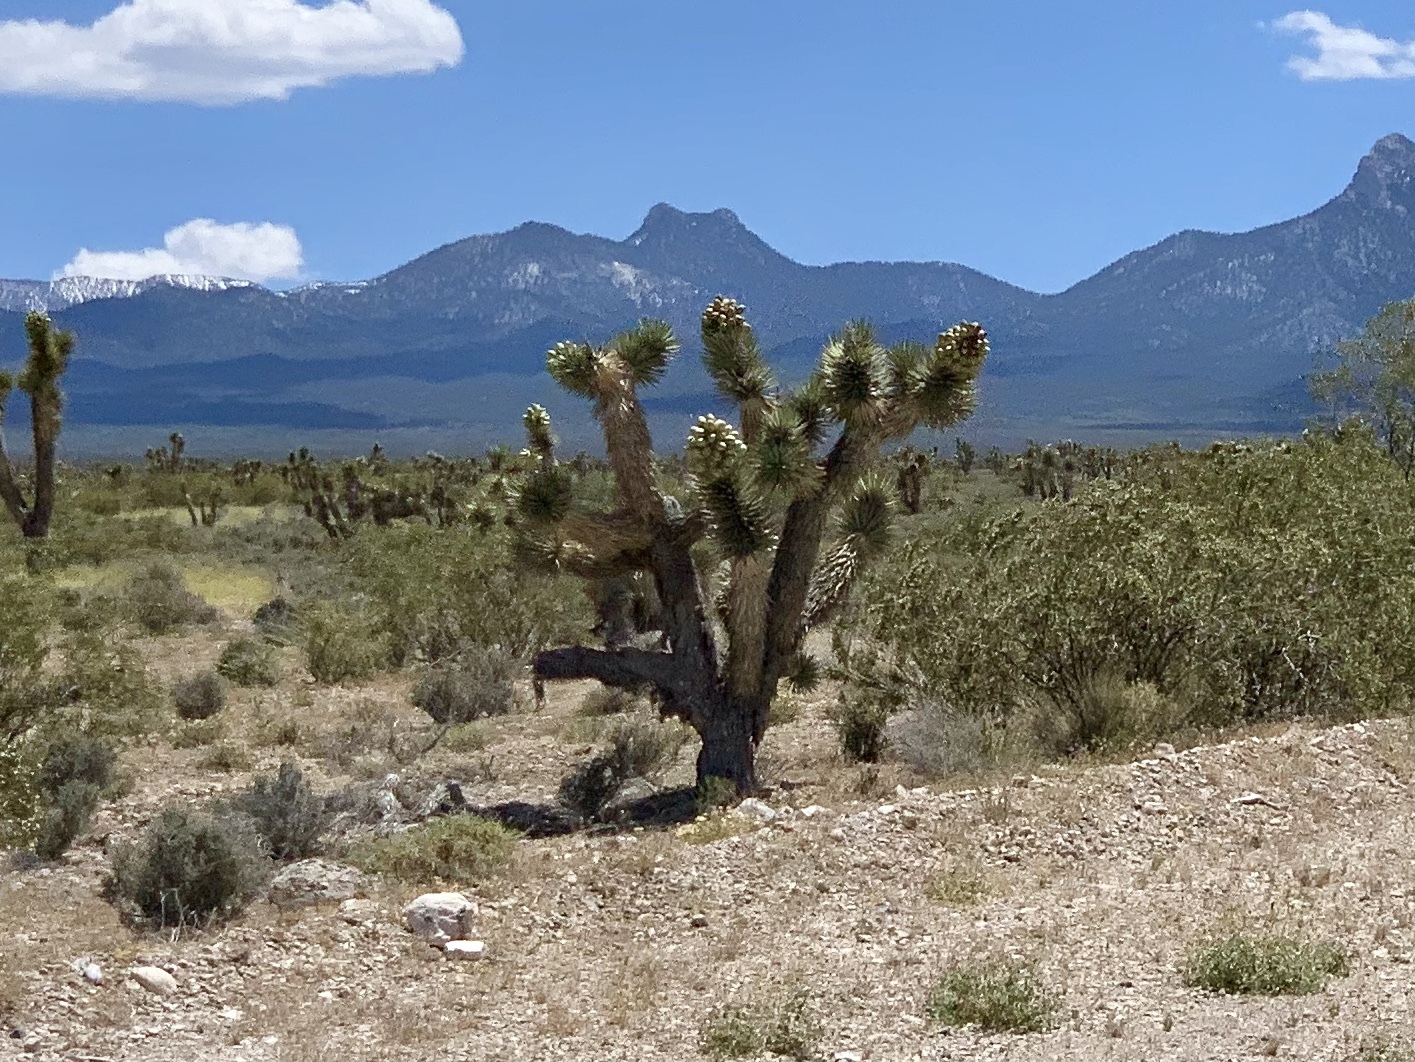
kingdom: Plantae
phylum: Tracheophyta
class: Liliopsida
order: Asparagales
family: Asparagaceae
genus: Yucca
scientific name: Yucca brevifolia
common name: Joshua tree
